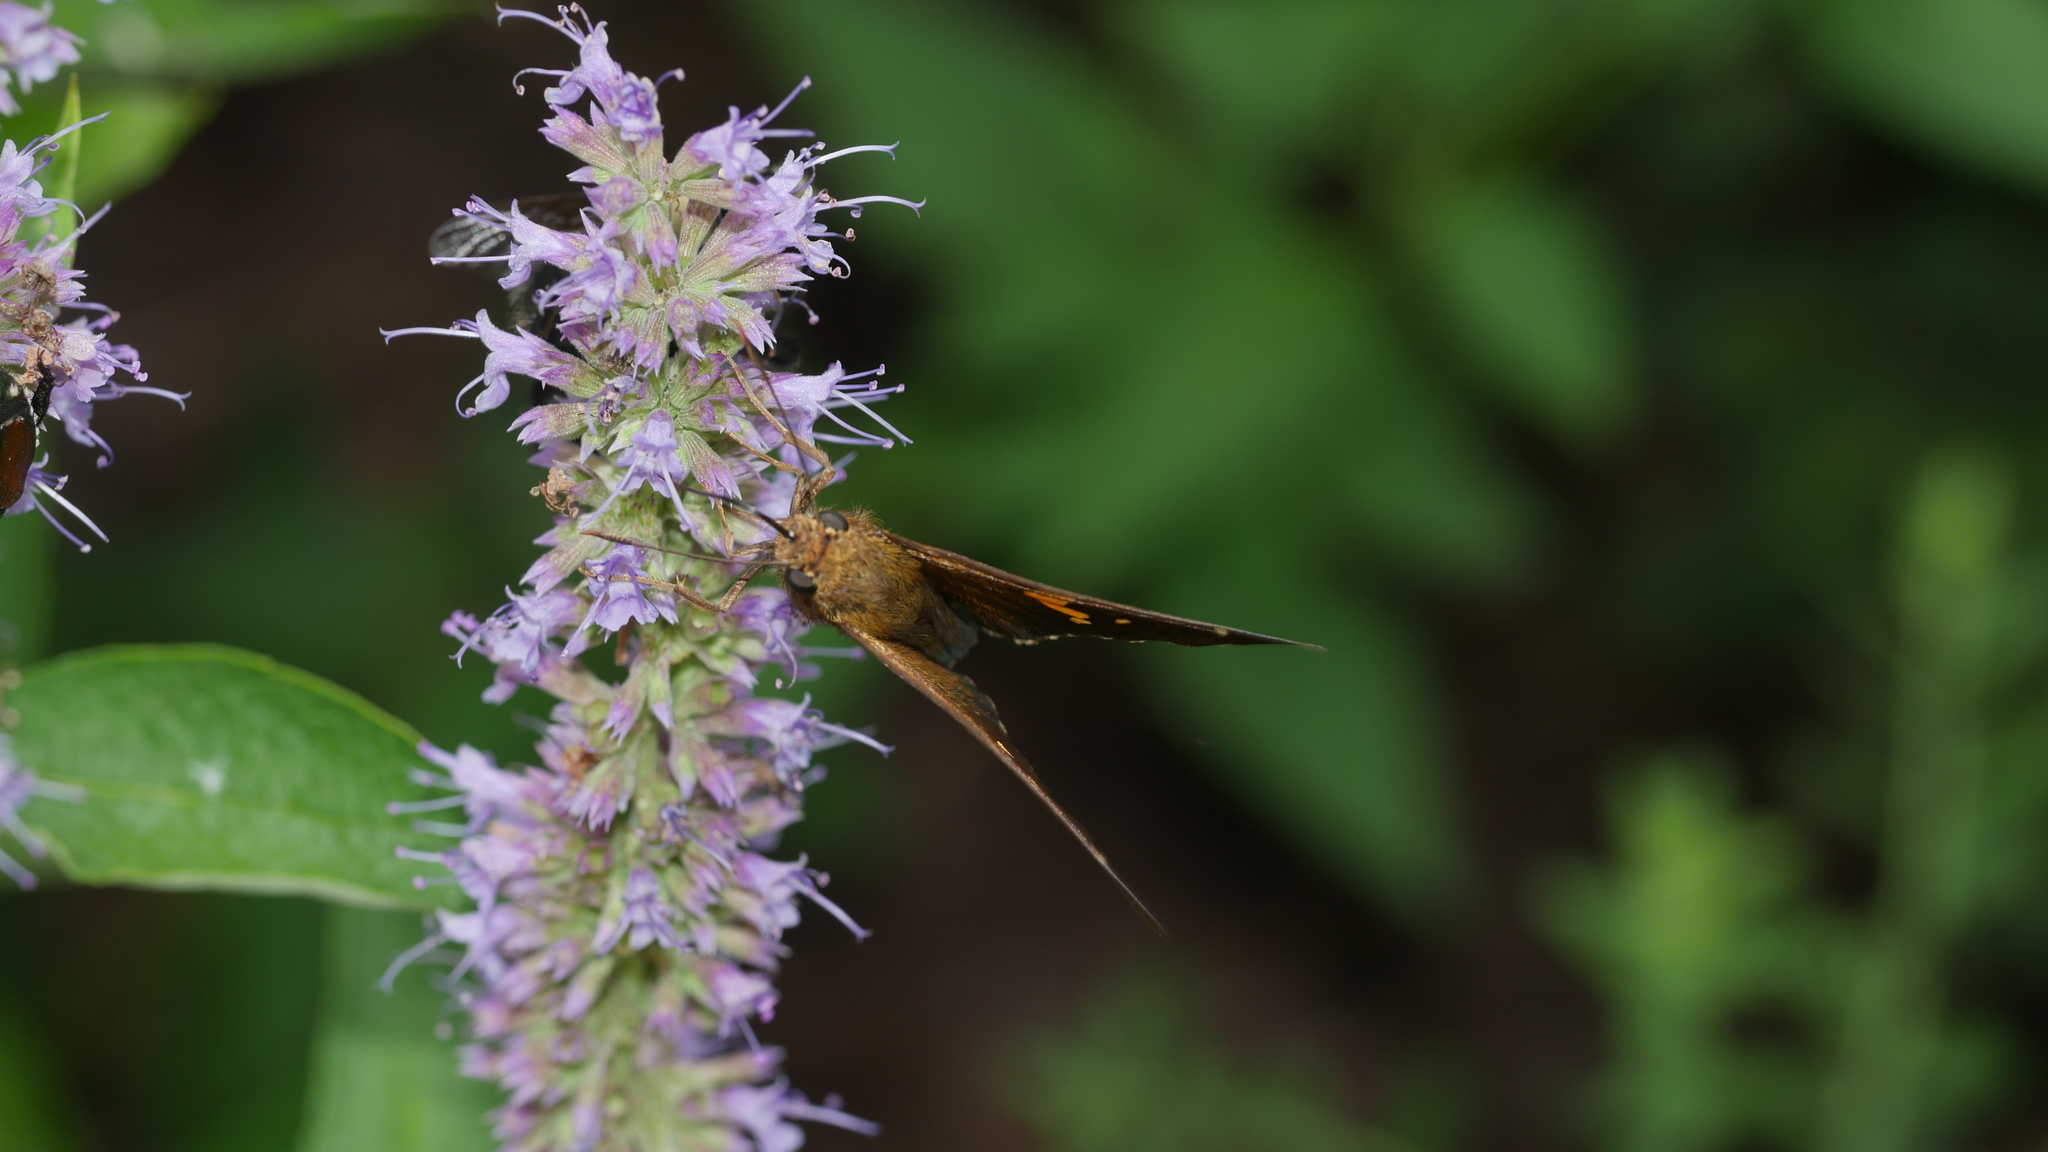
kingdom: Animalia
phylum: Arthropoda
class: Insecta
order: Lepidoptera
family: Hesperiidae
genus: Epargyreus
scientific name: Epargyreus clarus
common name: Silver-spotted skipper
